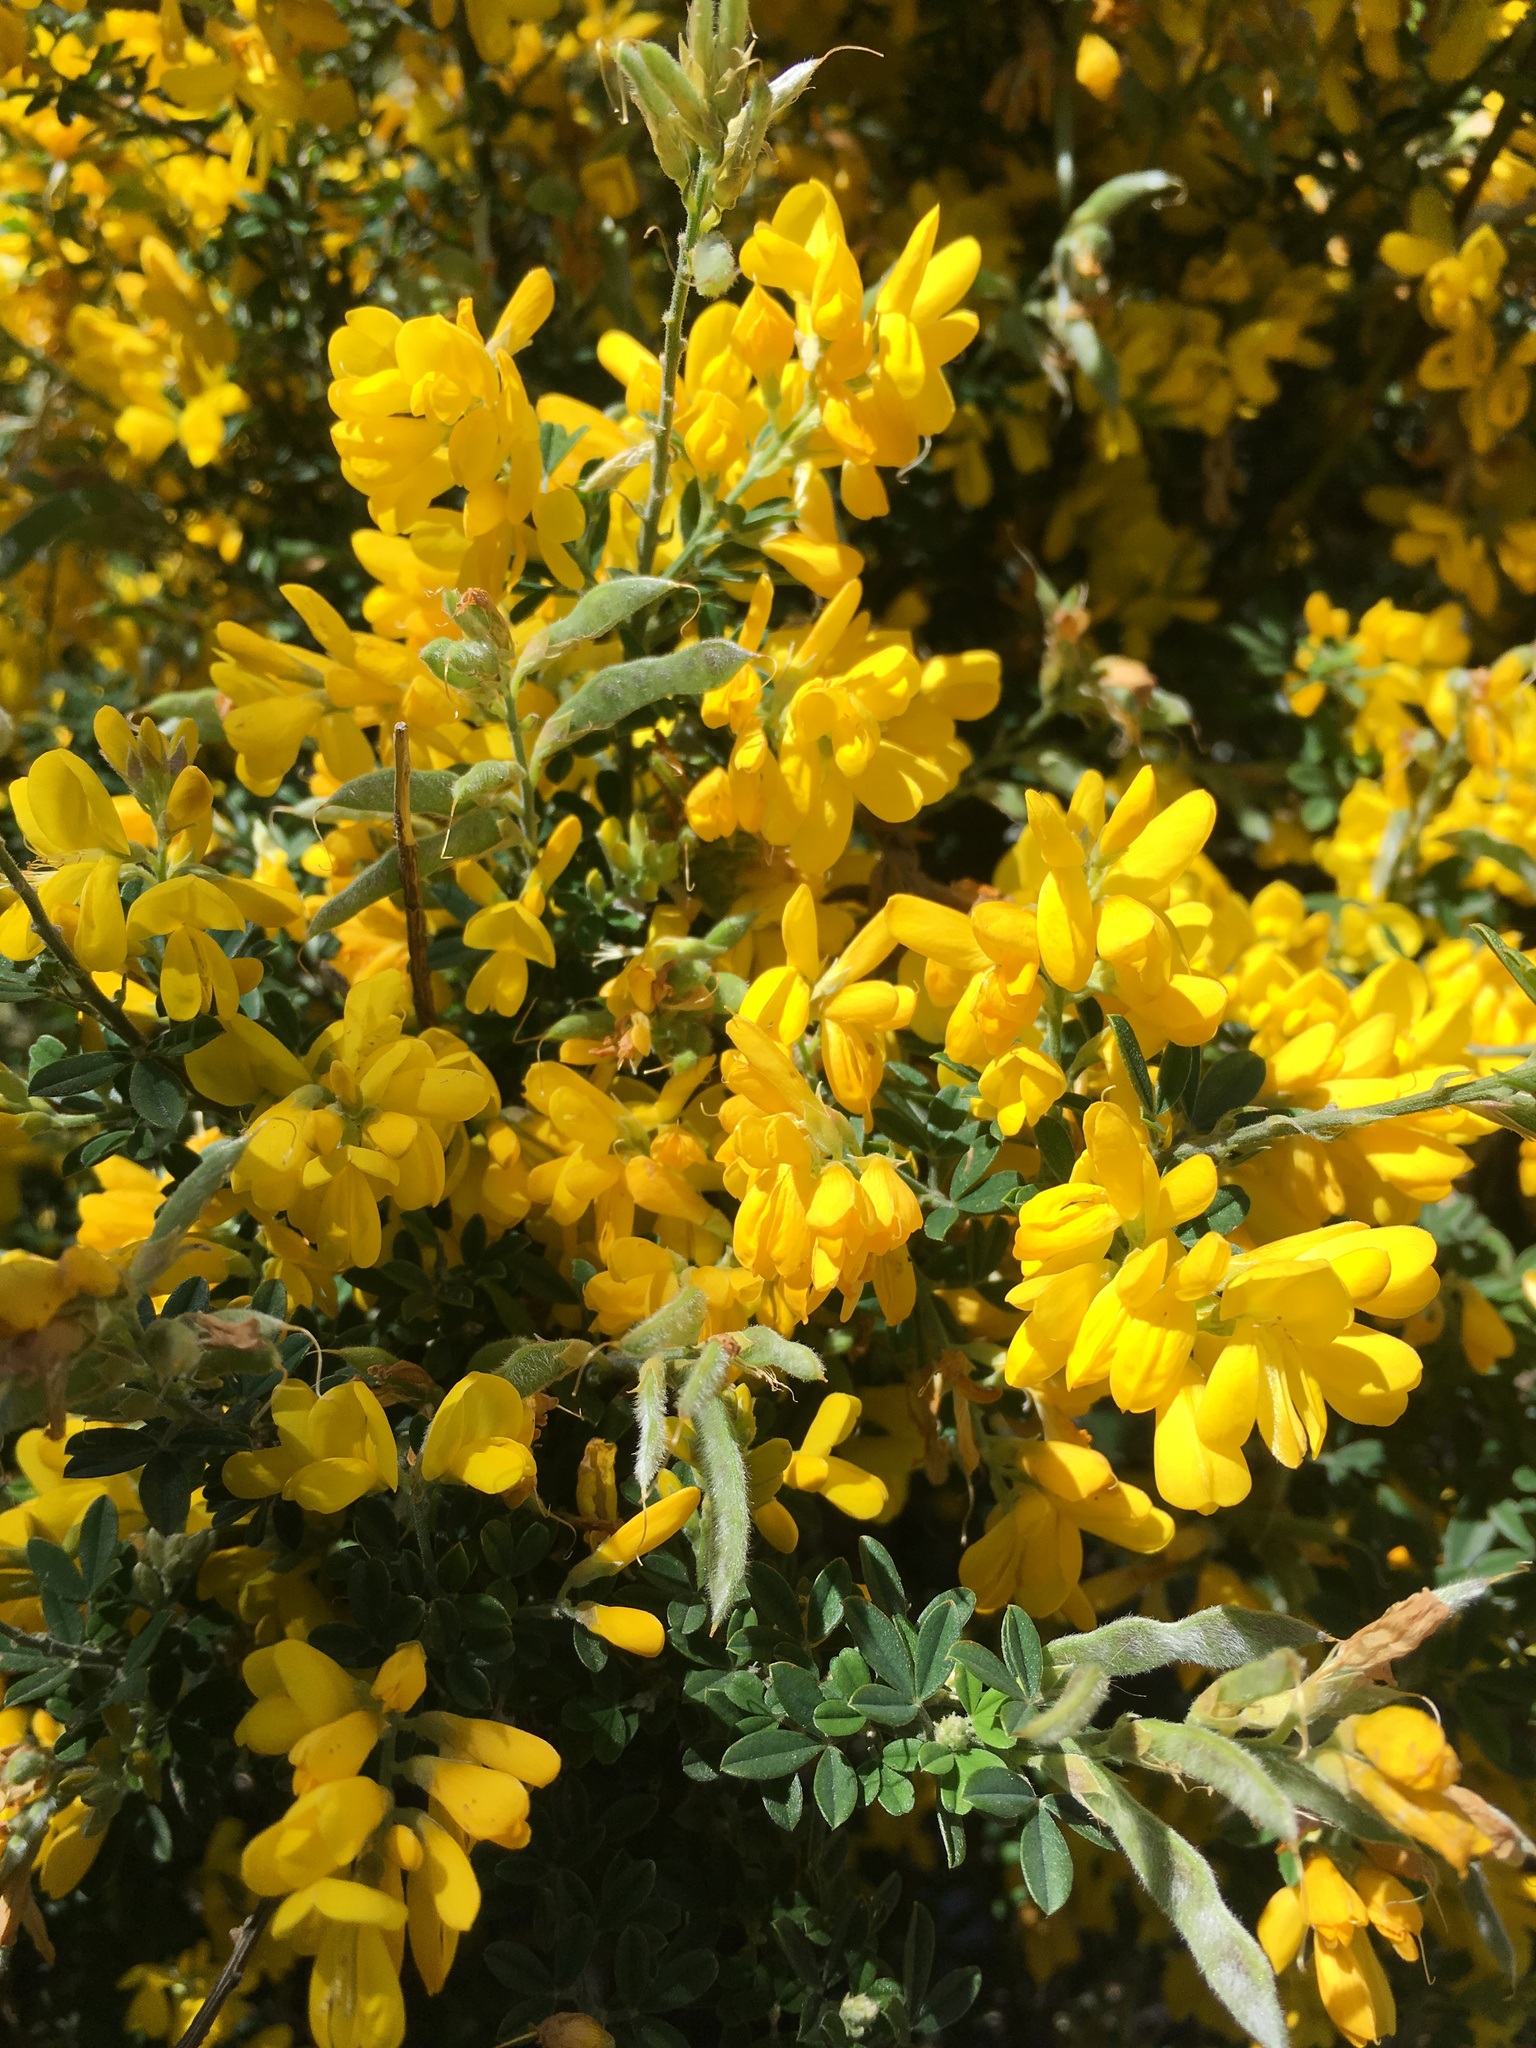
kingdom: Plantae
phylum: Tracheophyta
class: Magnoliopsida
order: Fabales
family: Fabaceae
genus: Genista
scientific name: Genista monspessulana
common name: Montpellier broom
